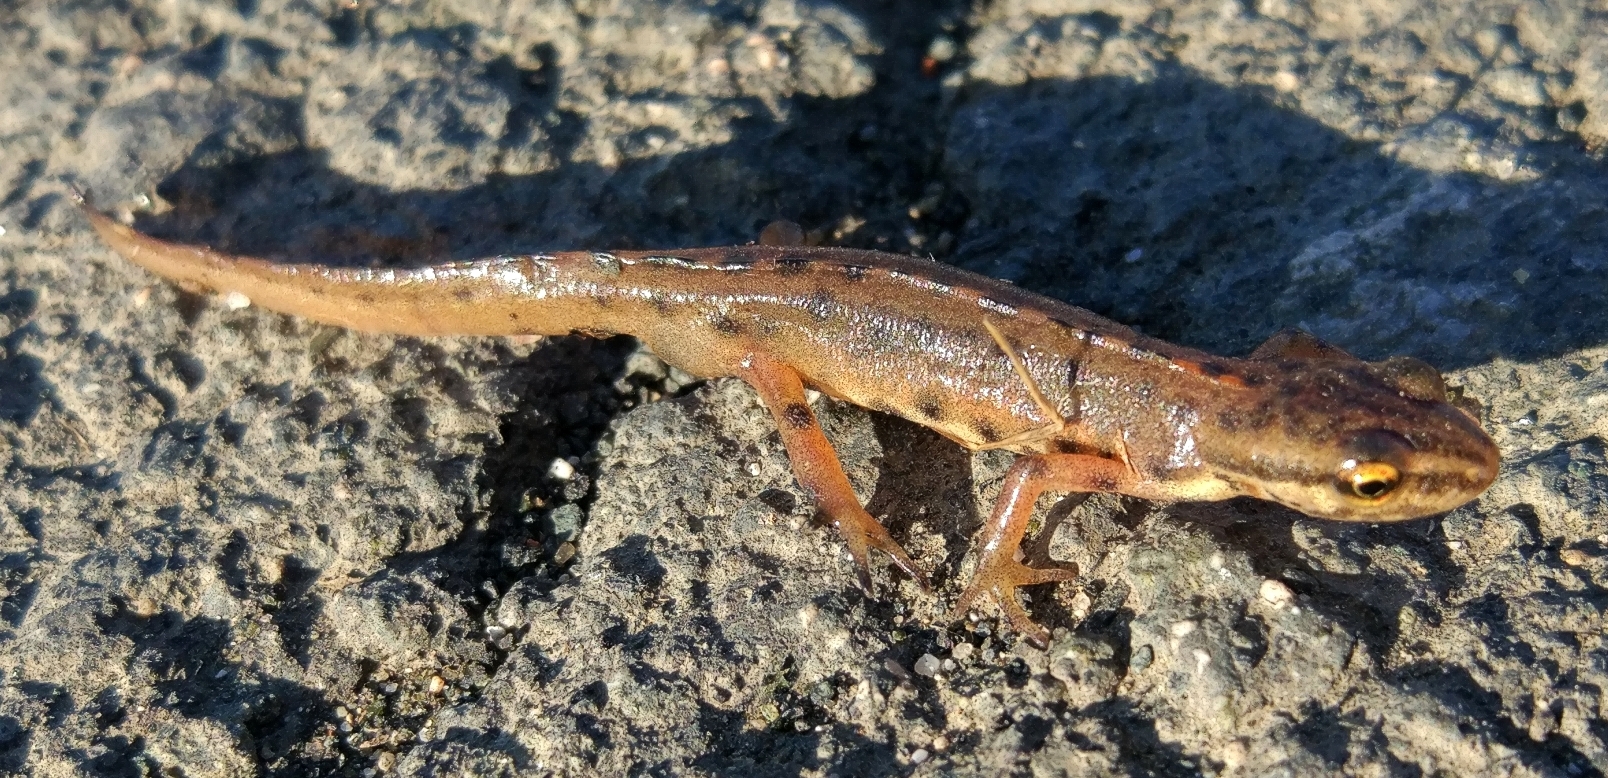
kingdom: Animalia
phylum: Chordata
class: Amphibia
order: Caudata
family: Salamandridae
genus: Lissotriton
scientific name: Lissotriton schmidtleri
